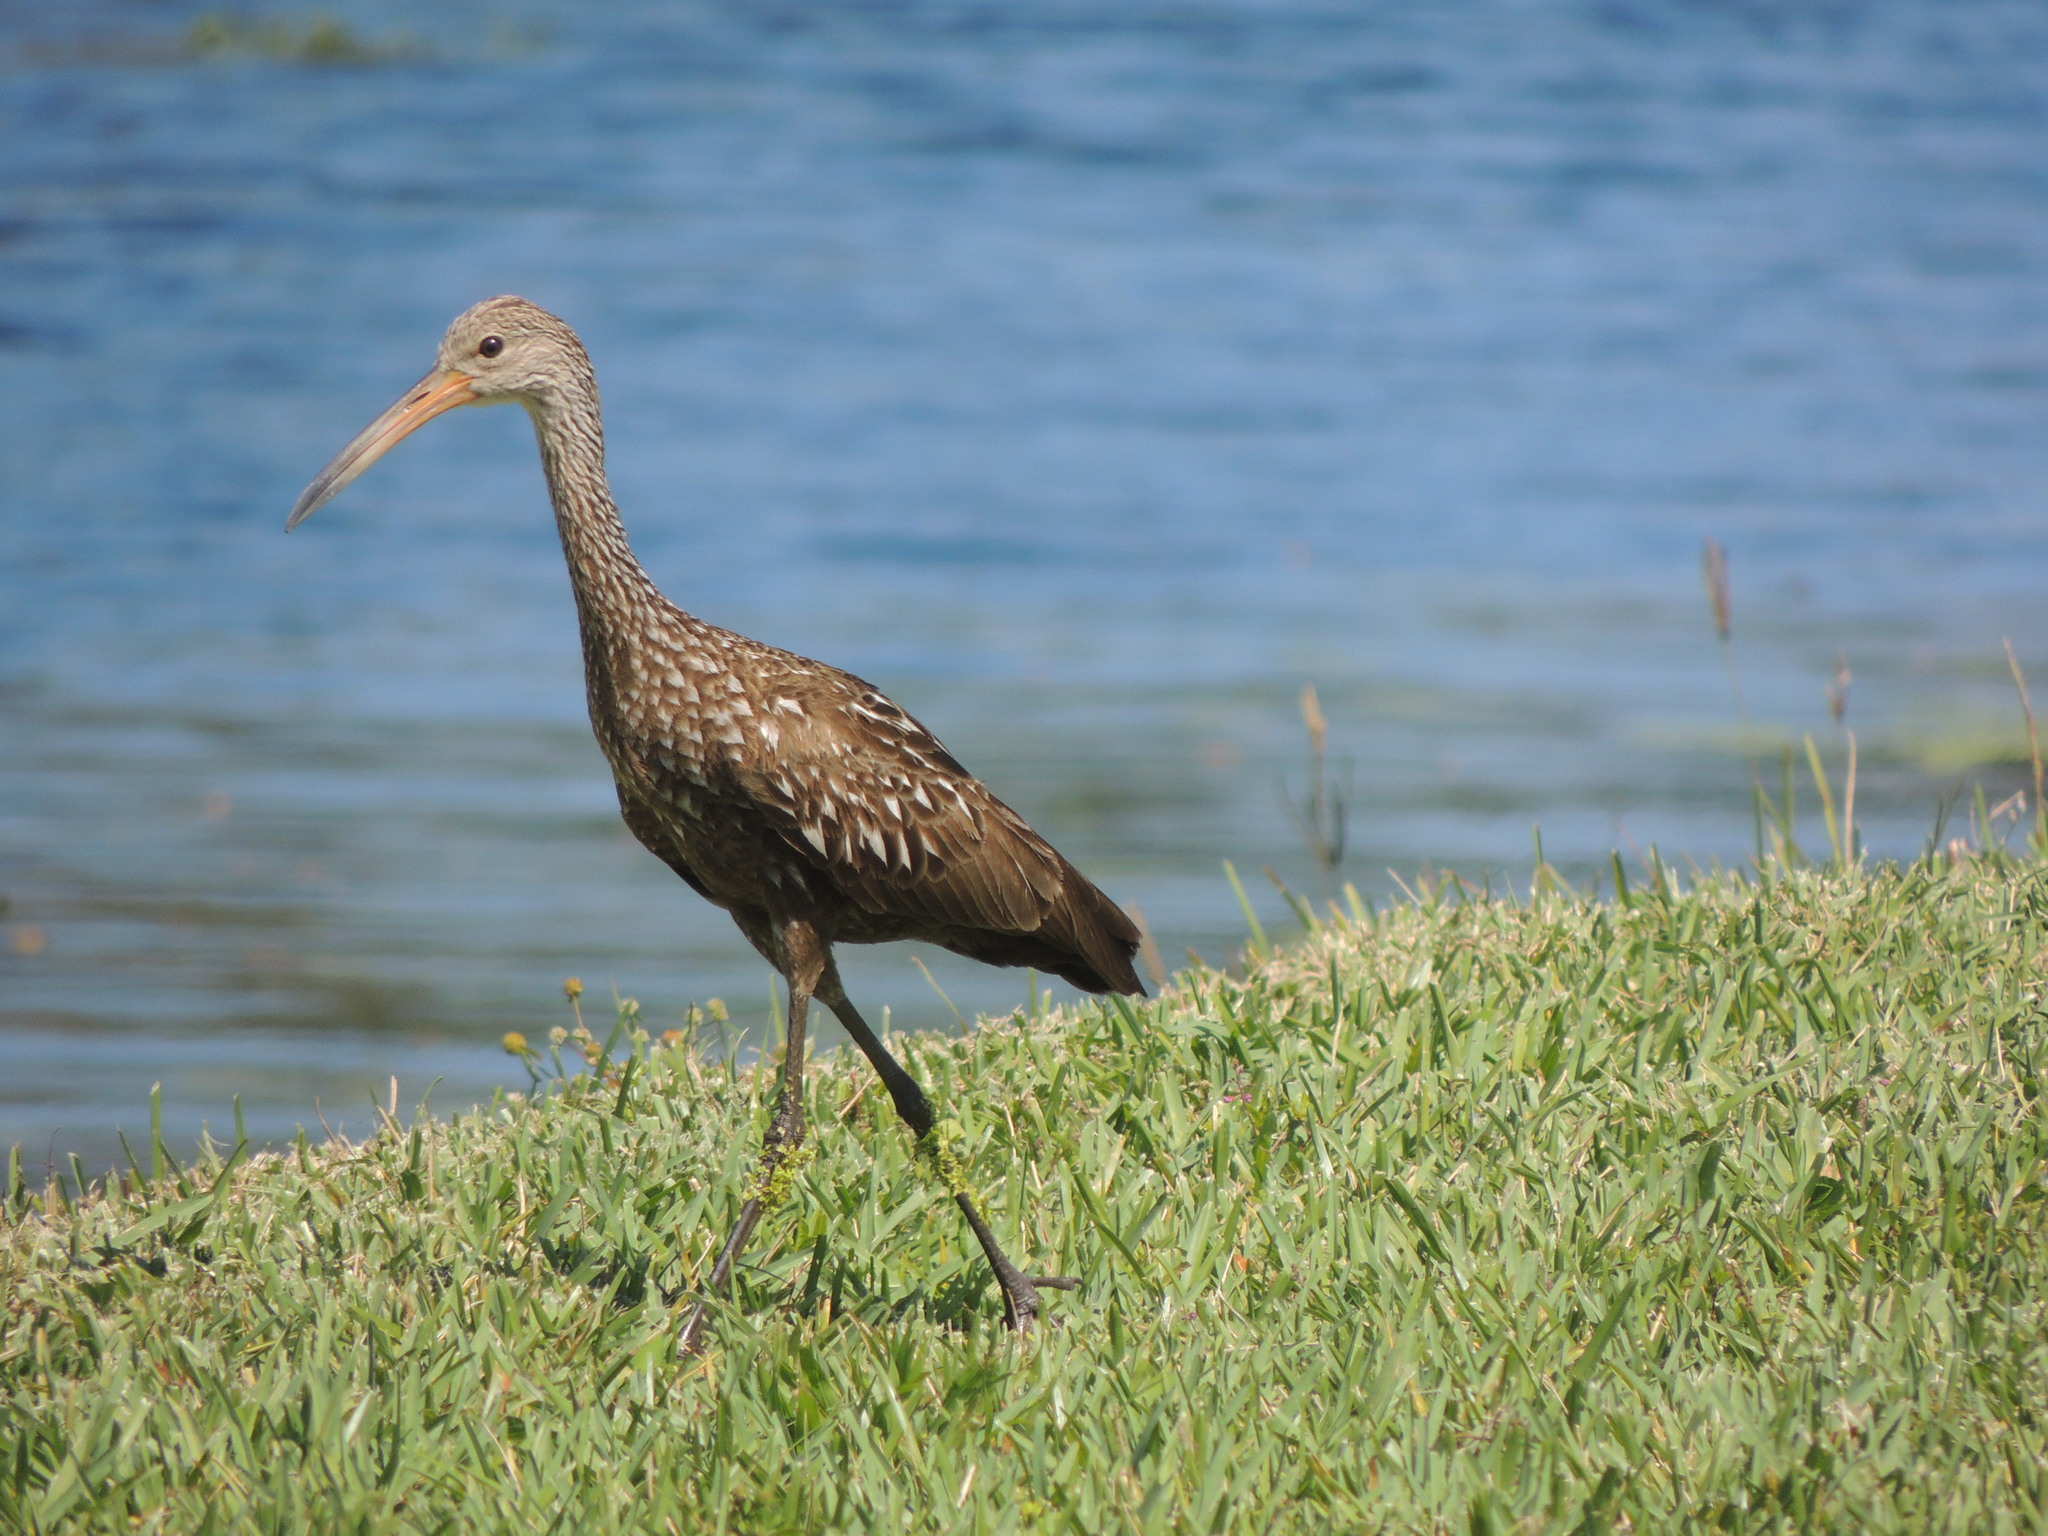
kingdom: Animalia
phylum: Chordata
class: Aves
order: Gruiformes
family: Aramidae
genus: Aramus
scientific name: Aramus guarauna
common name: Limpkin
